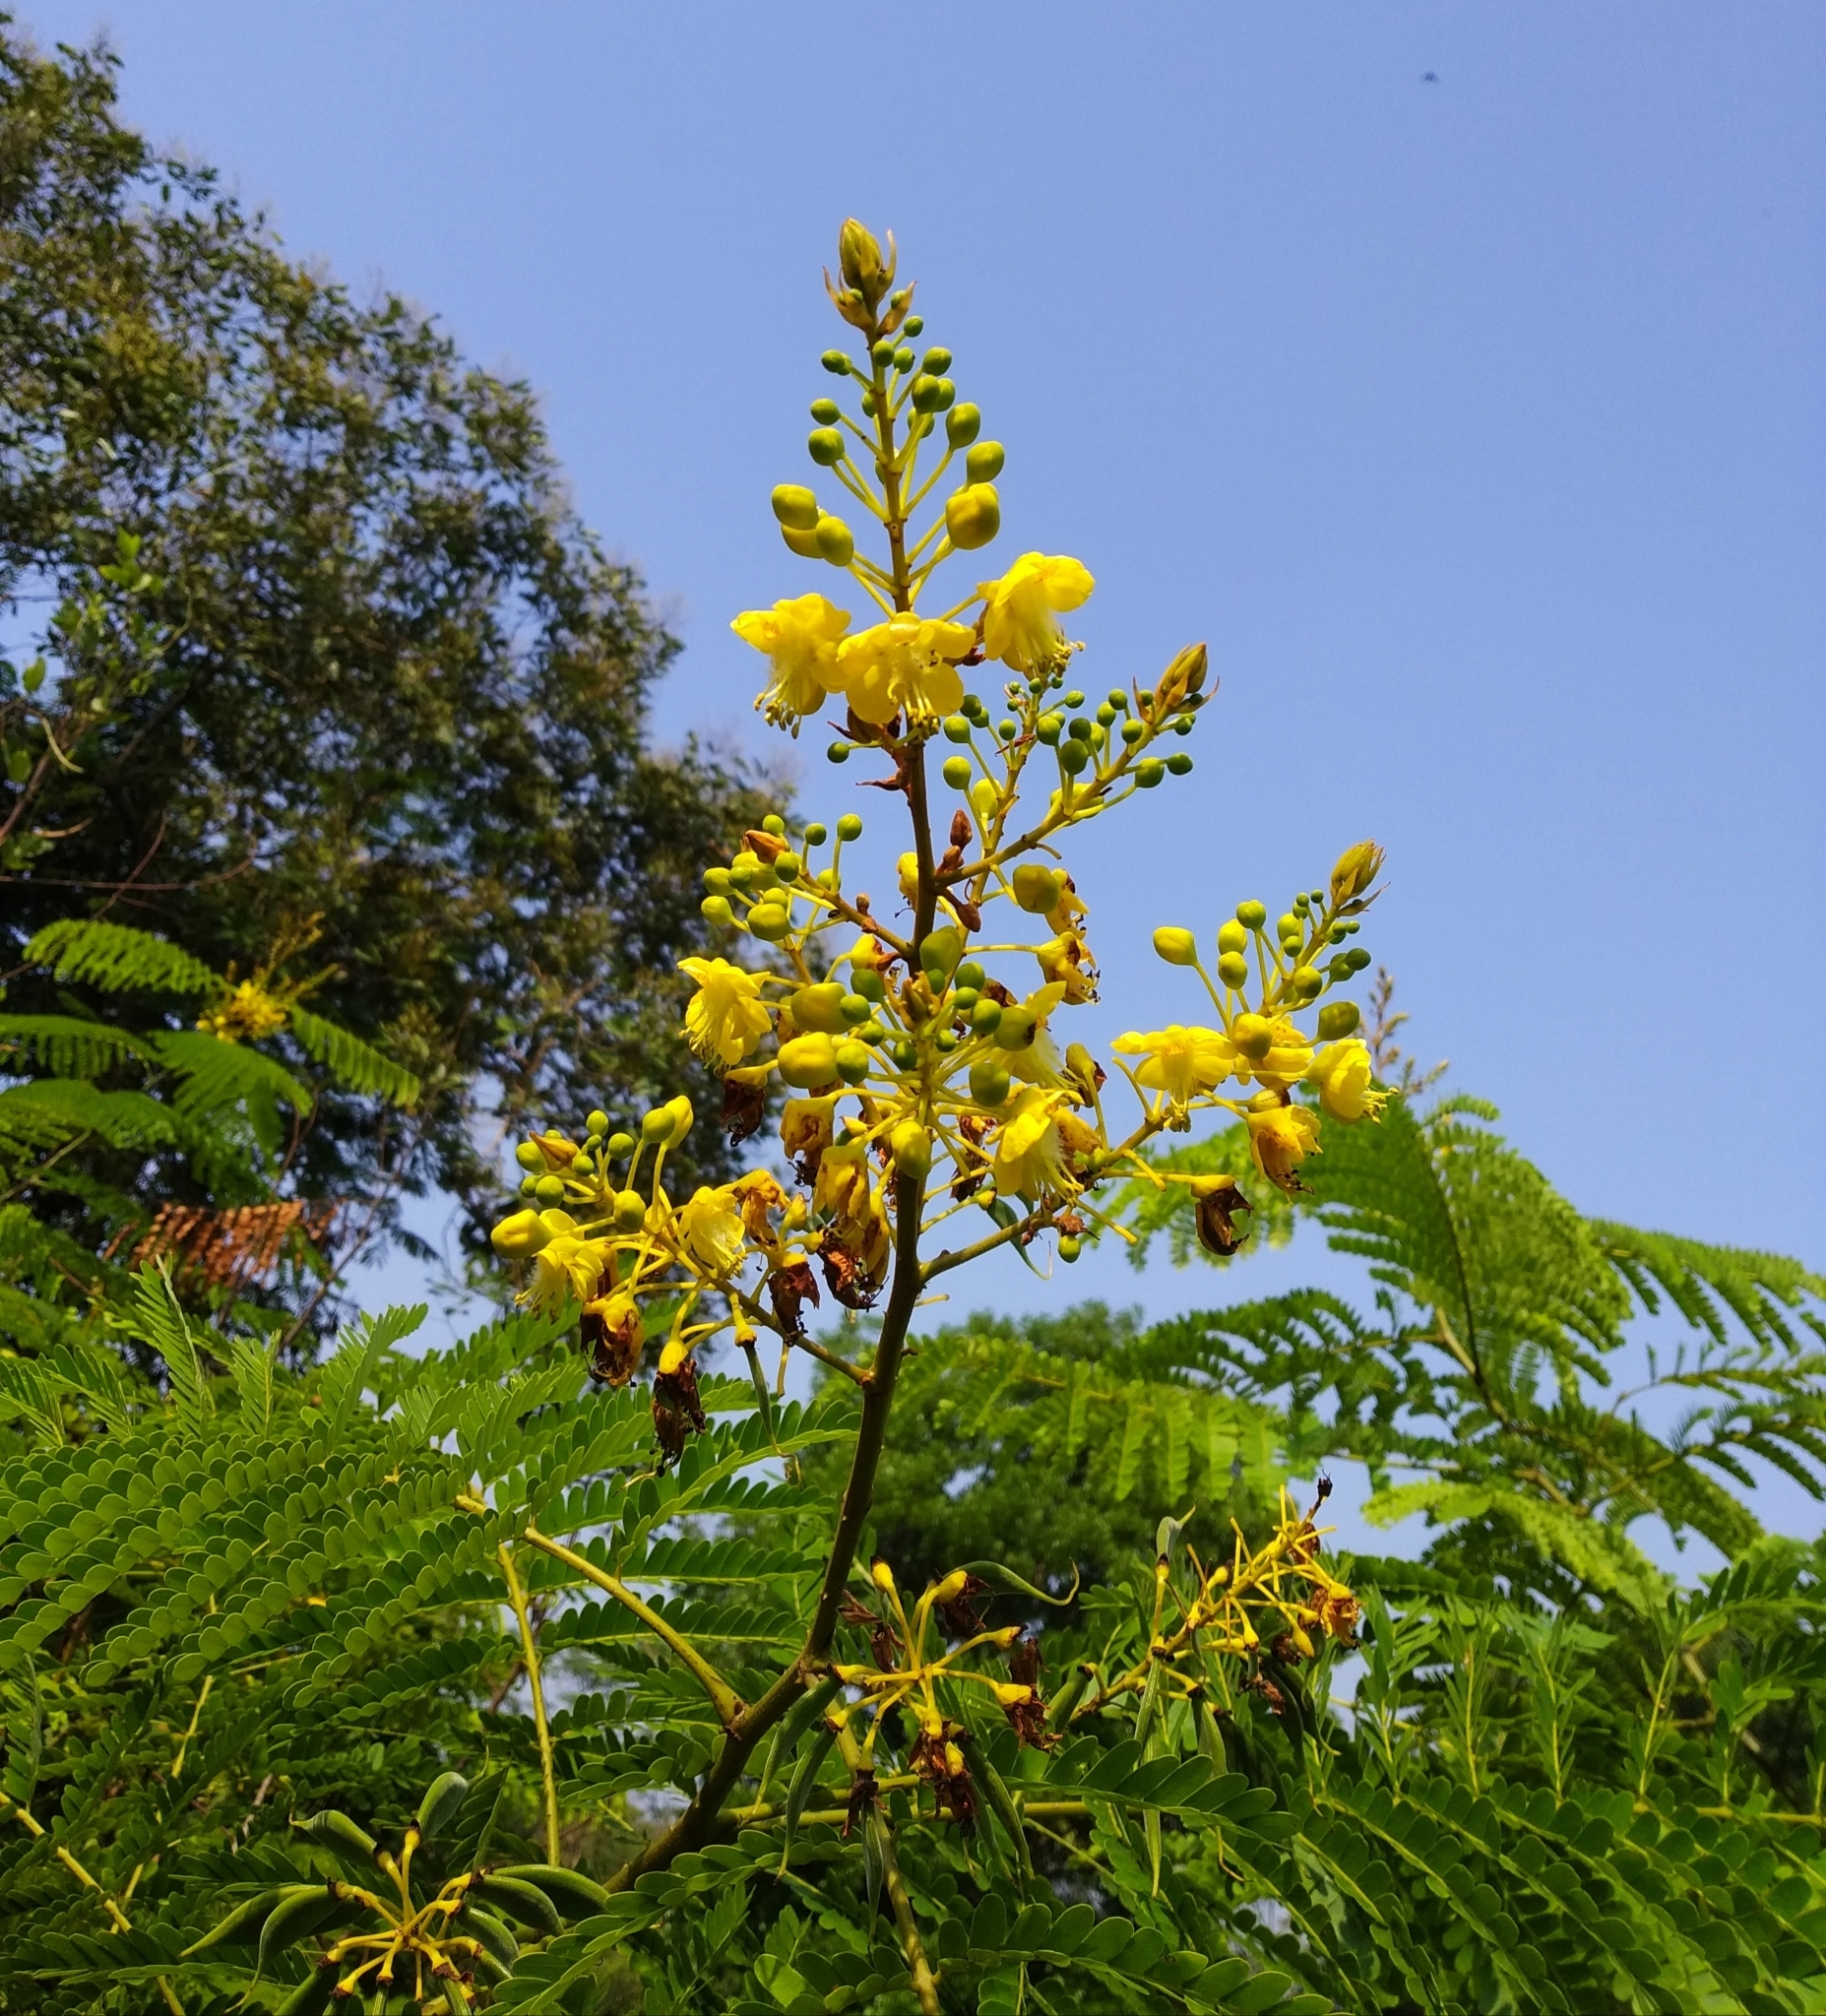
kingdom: Plantae
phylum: Tracheophyta
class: Magnoliopsida
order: Fabales
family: Fabaceae
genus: Biancaea
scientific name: Biancaea sappan
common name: Sappan
